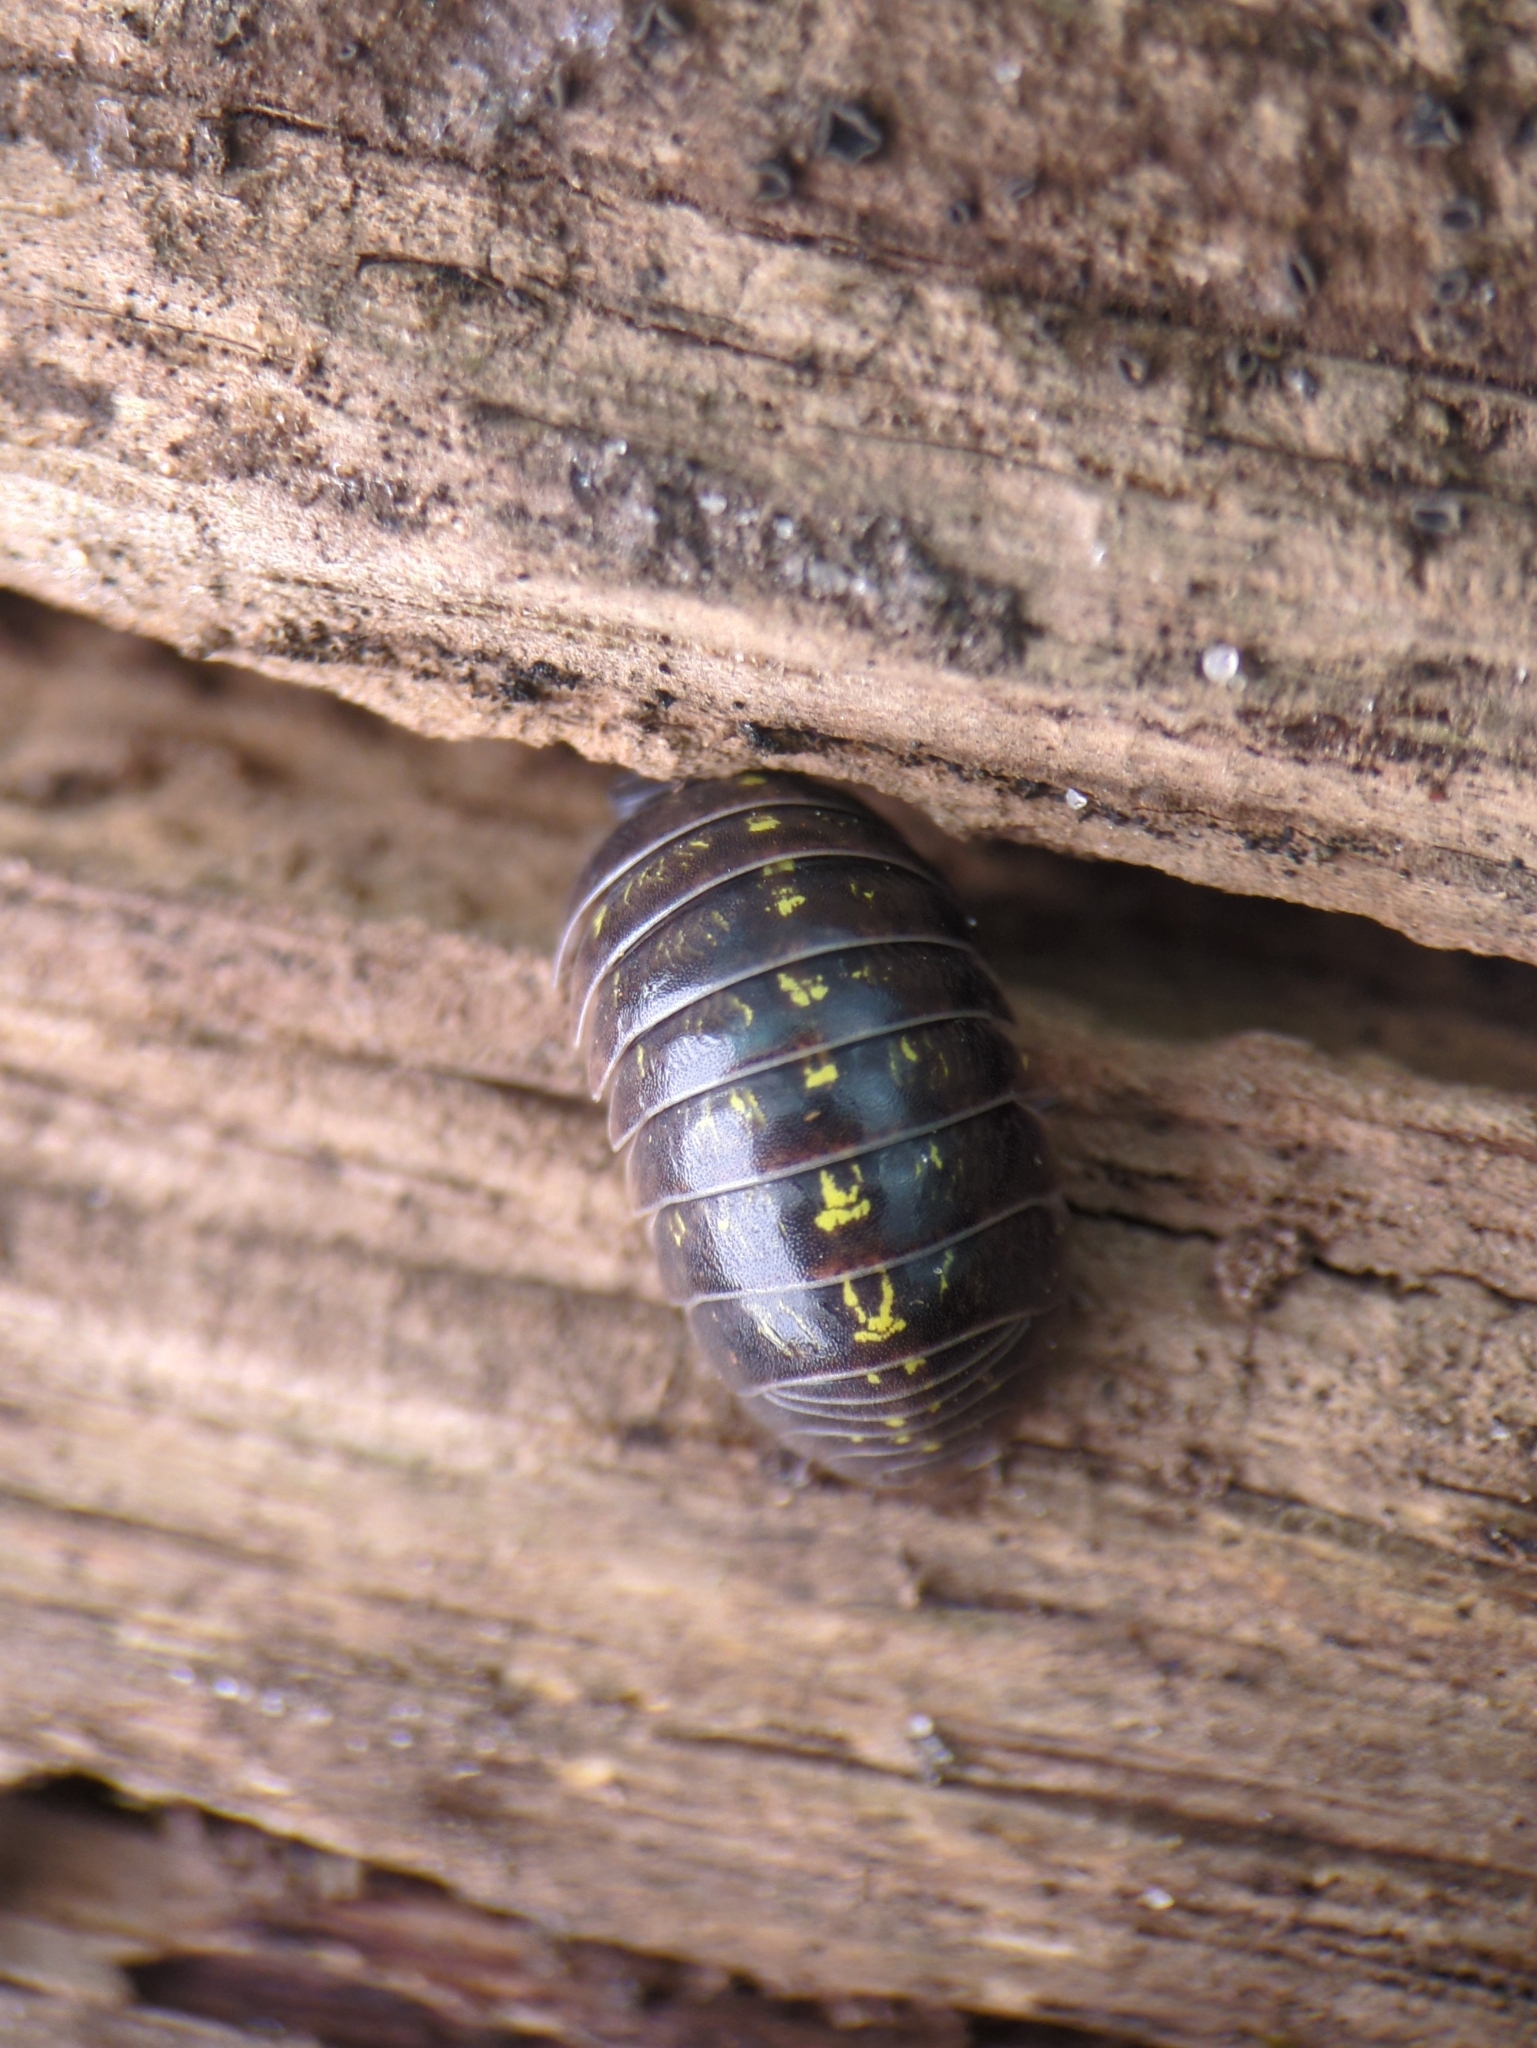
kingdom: Animalia
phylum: Arthropoda
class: Malacostraca
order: Isopoda
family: Armadillidiidae
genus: Armadillidium
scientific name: Armadillidium vulgare
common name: Common pill woodlouse
